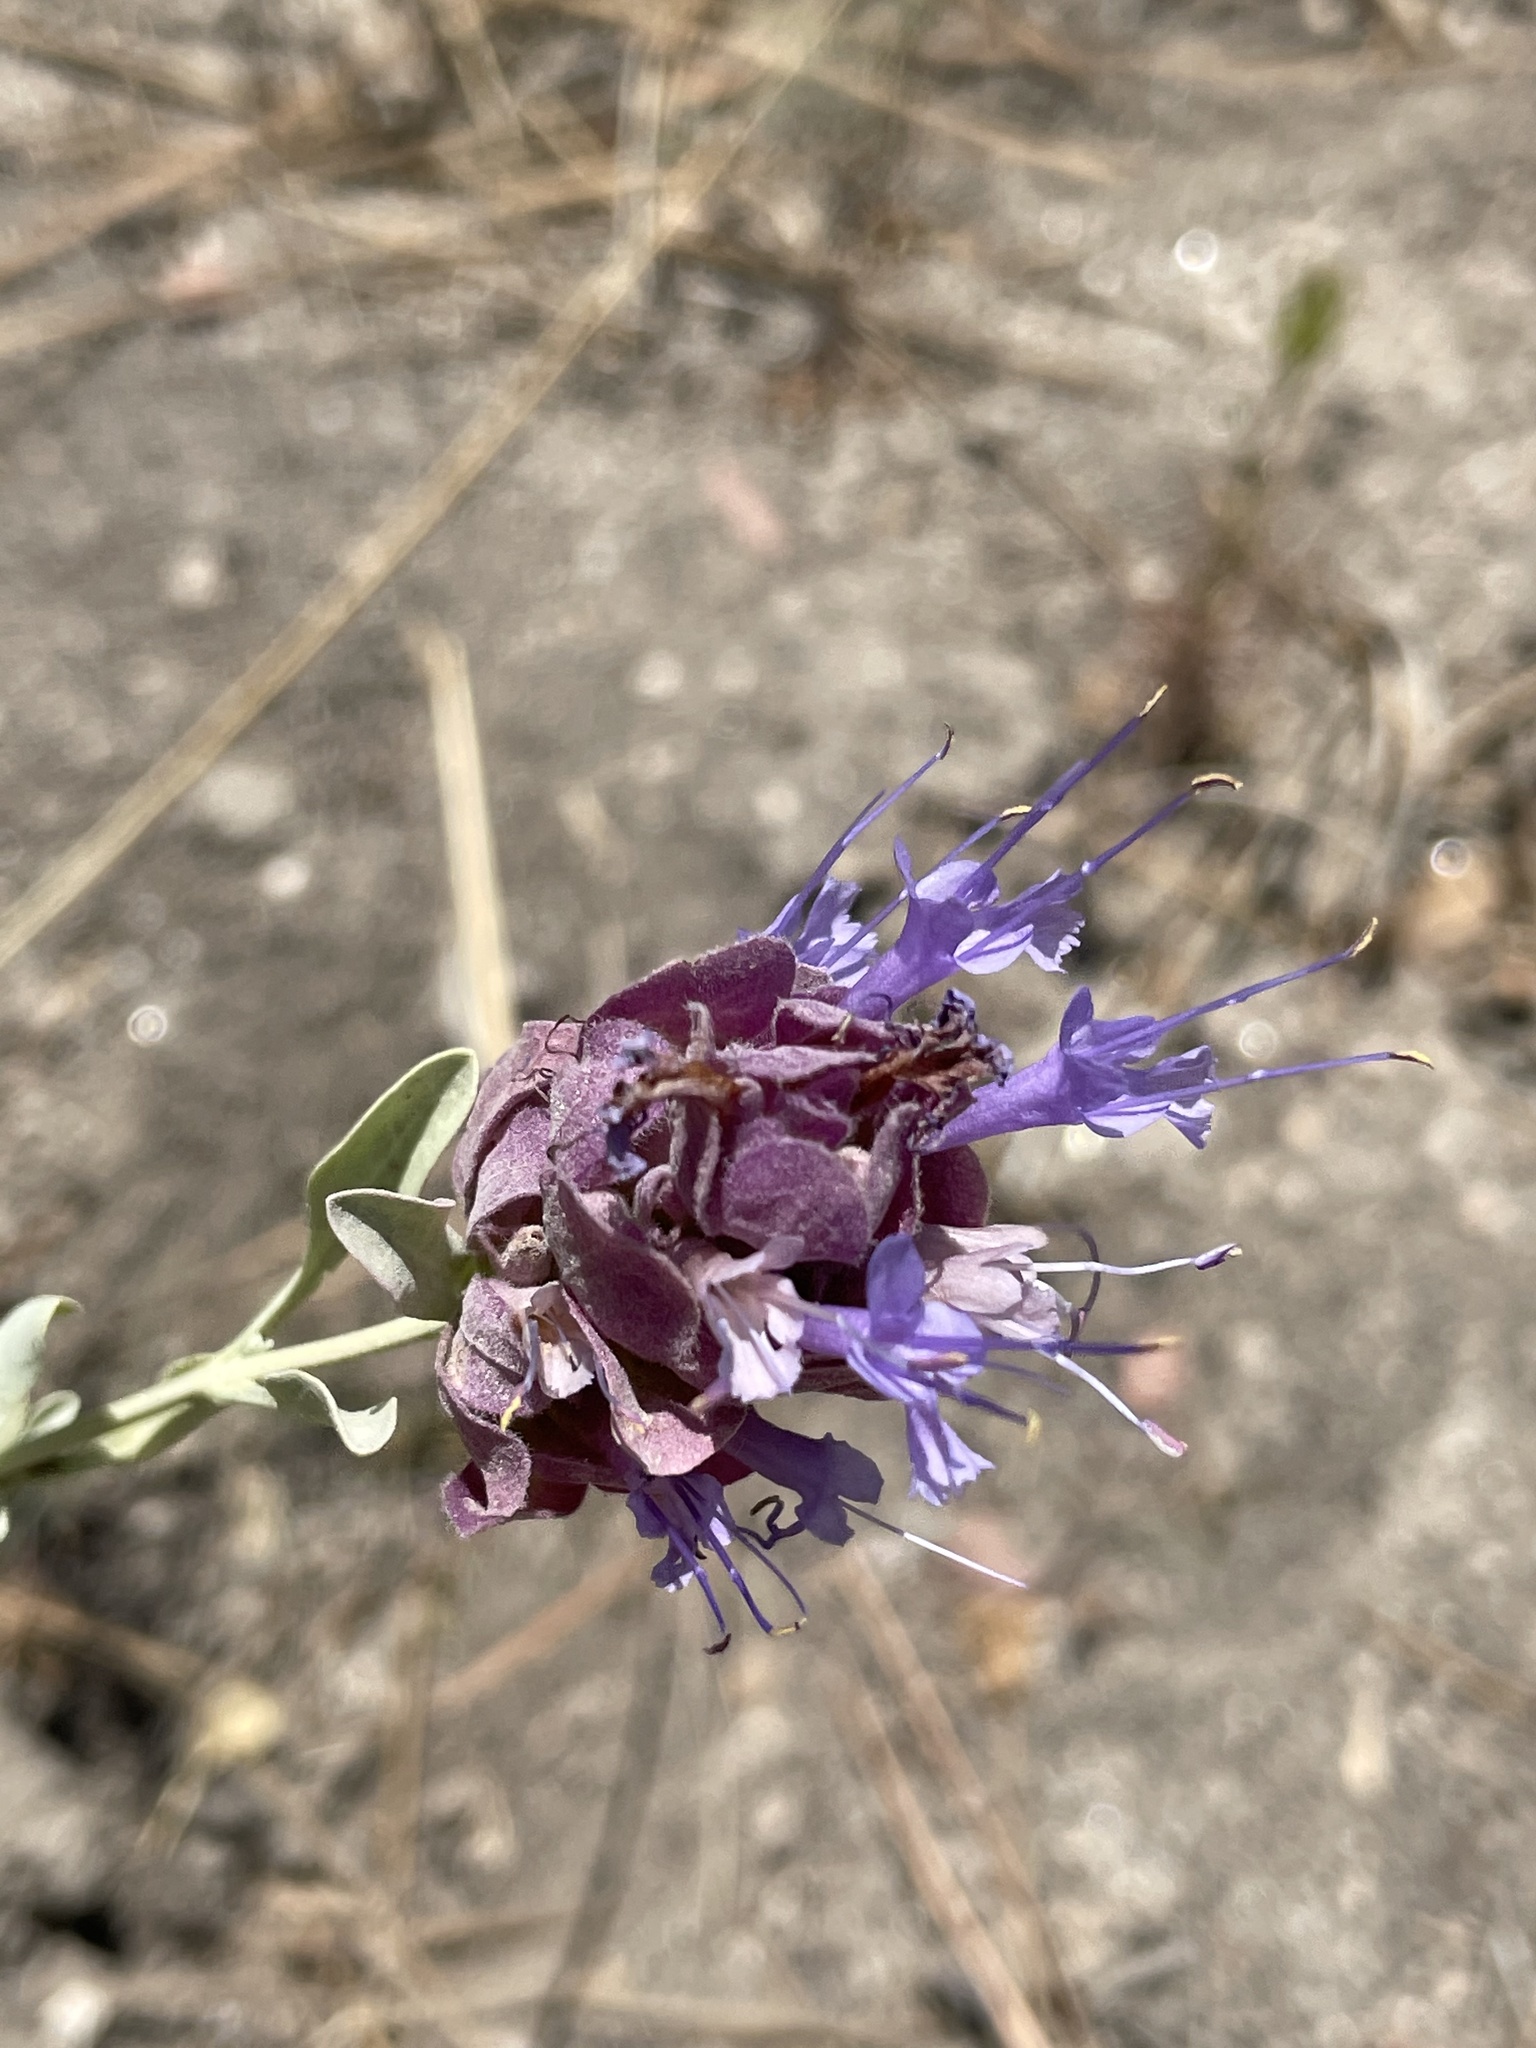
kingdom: Plantae
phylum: Tracheophyta
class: Magnoliopsida
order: Lamiales
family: Lamiaceae
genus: Salvia
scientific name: Salvia pachyphylla
